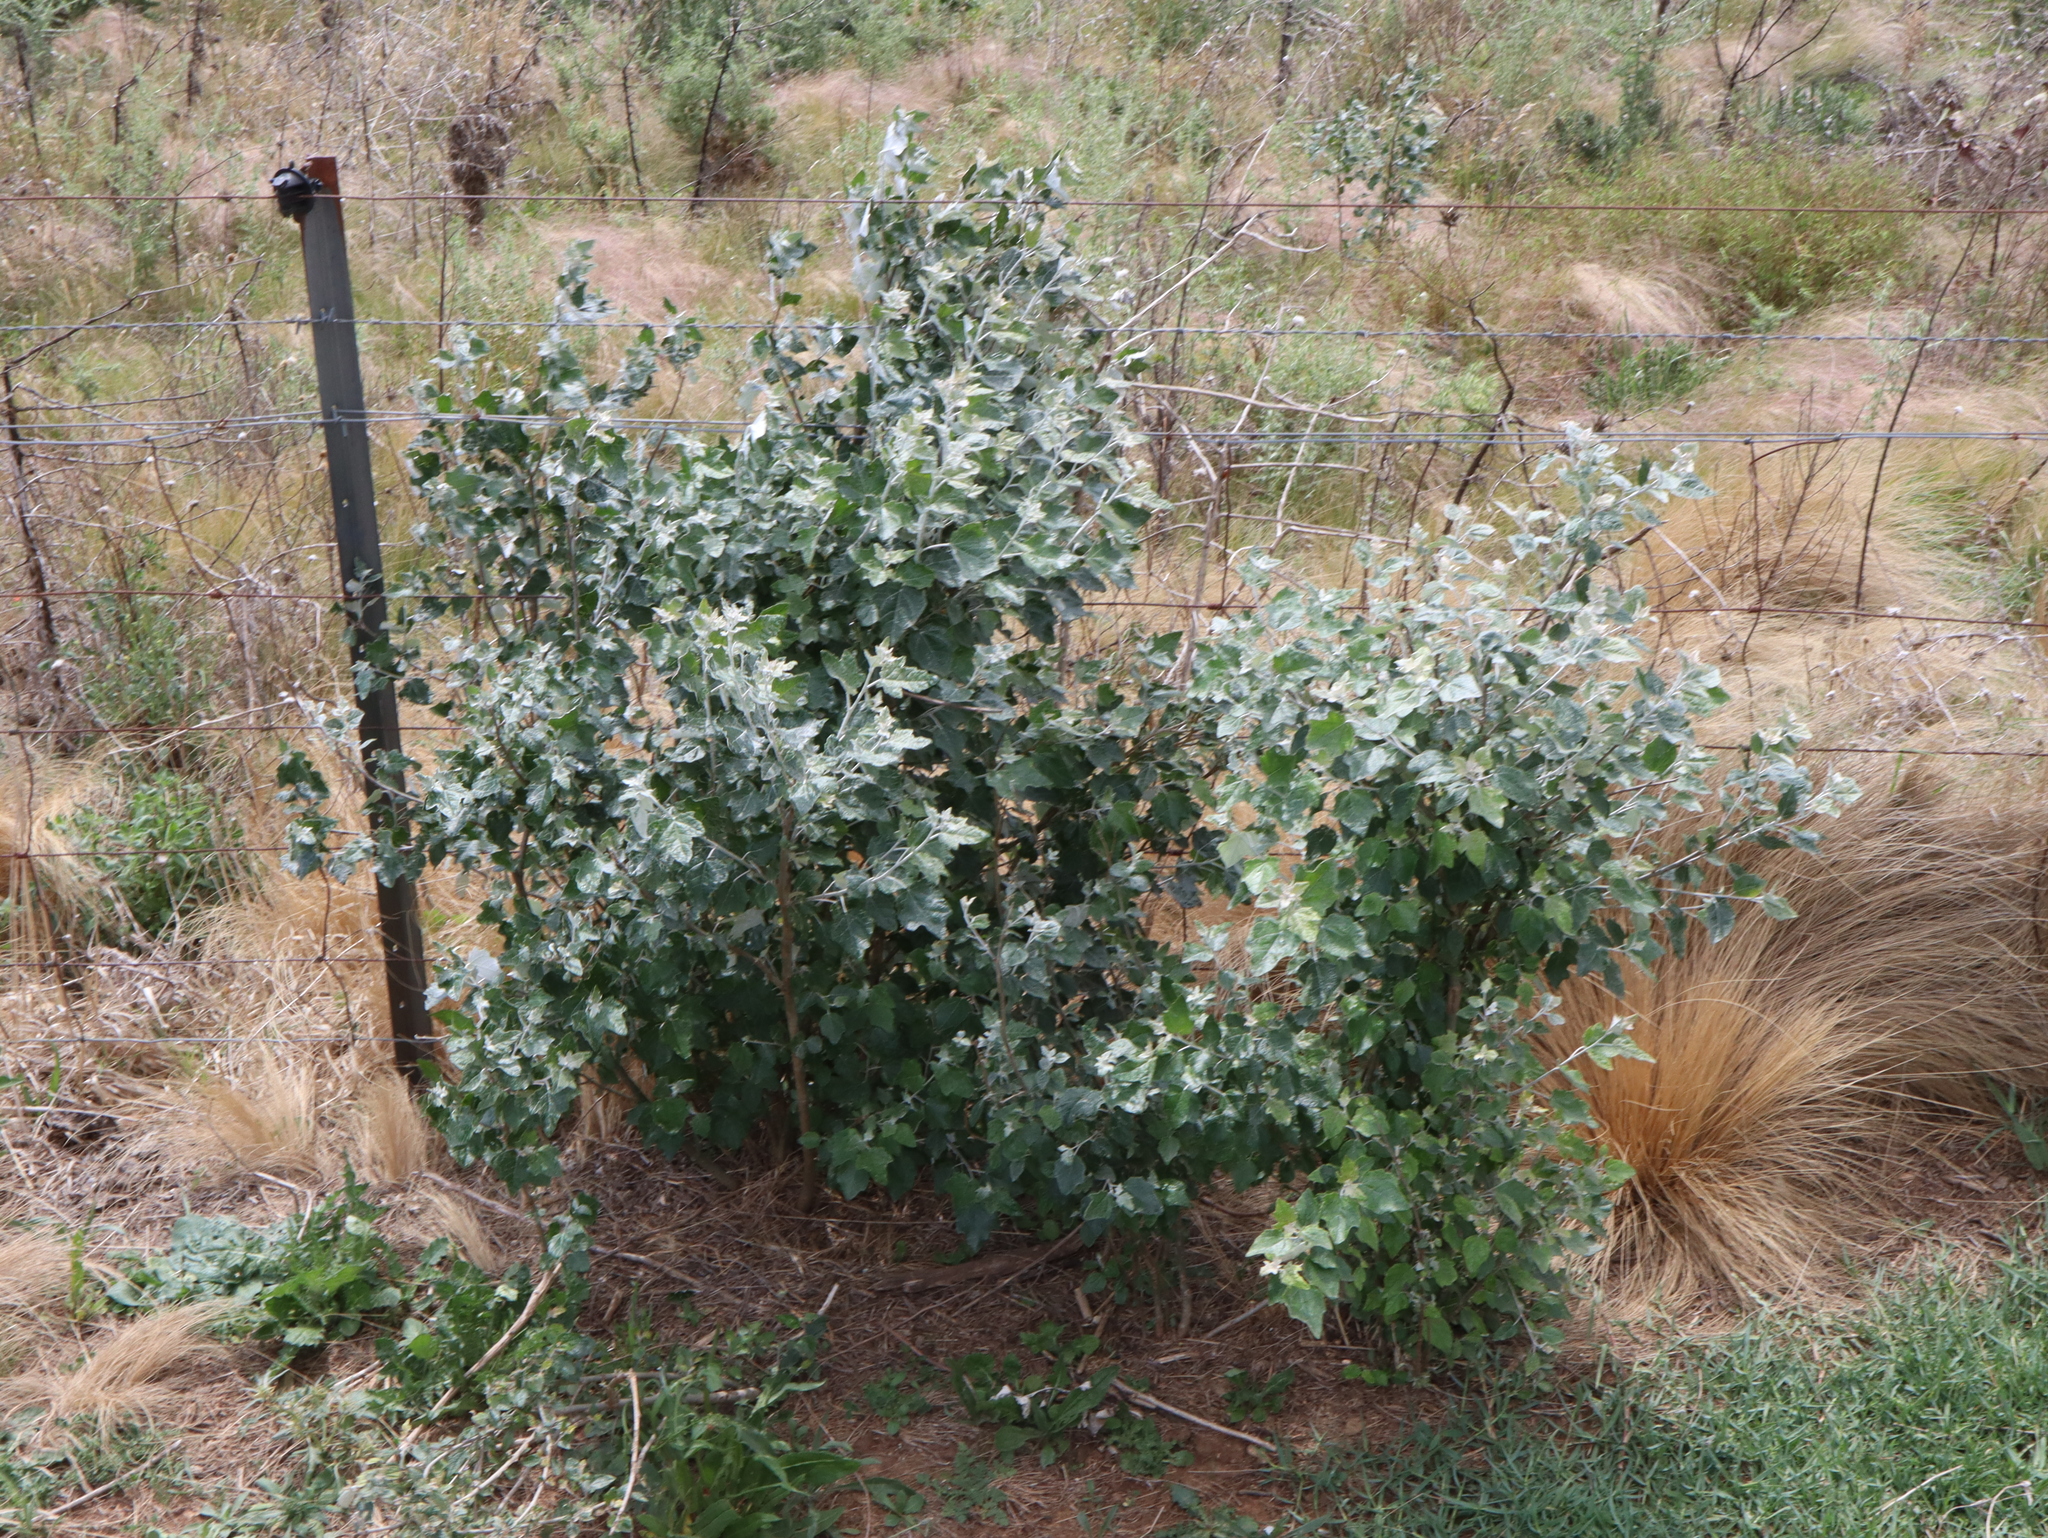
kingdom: Plantae
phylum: Tracheophyta
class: Magnoliopsida
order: Malpighiales
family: Salicaceae
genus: Populus
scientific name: Populus alba
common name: White poplar
